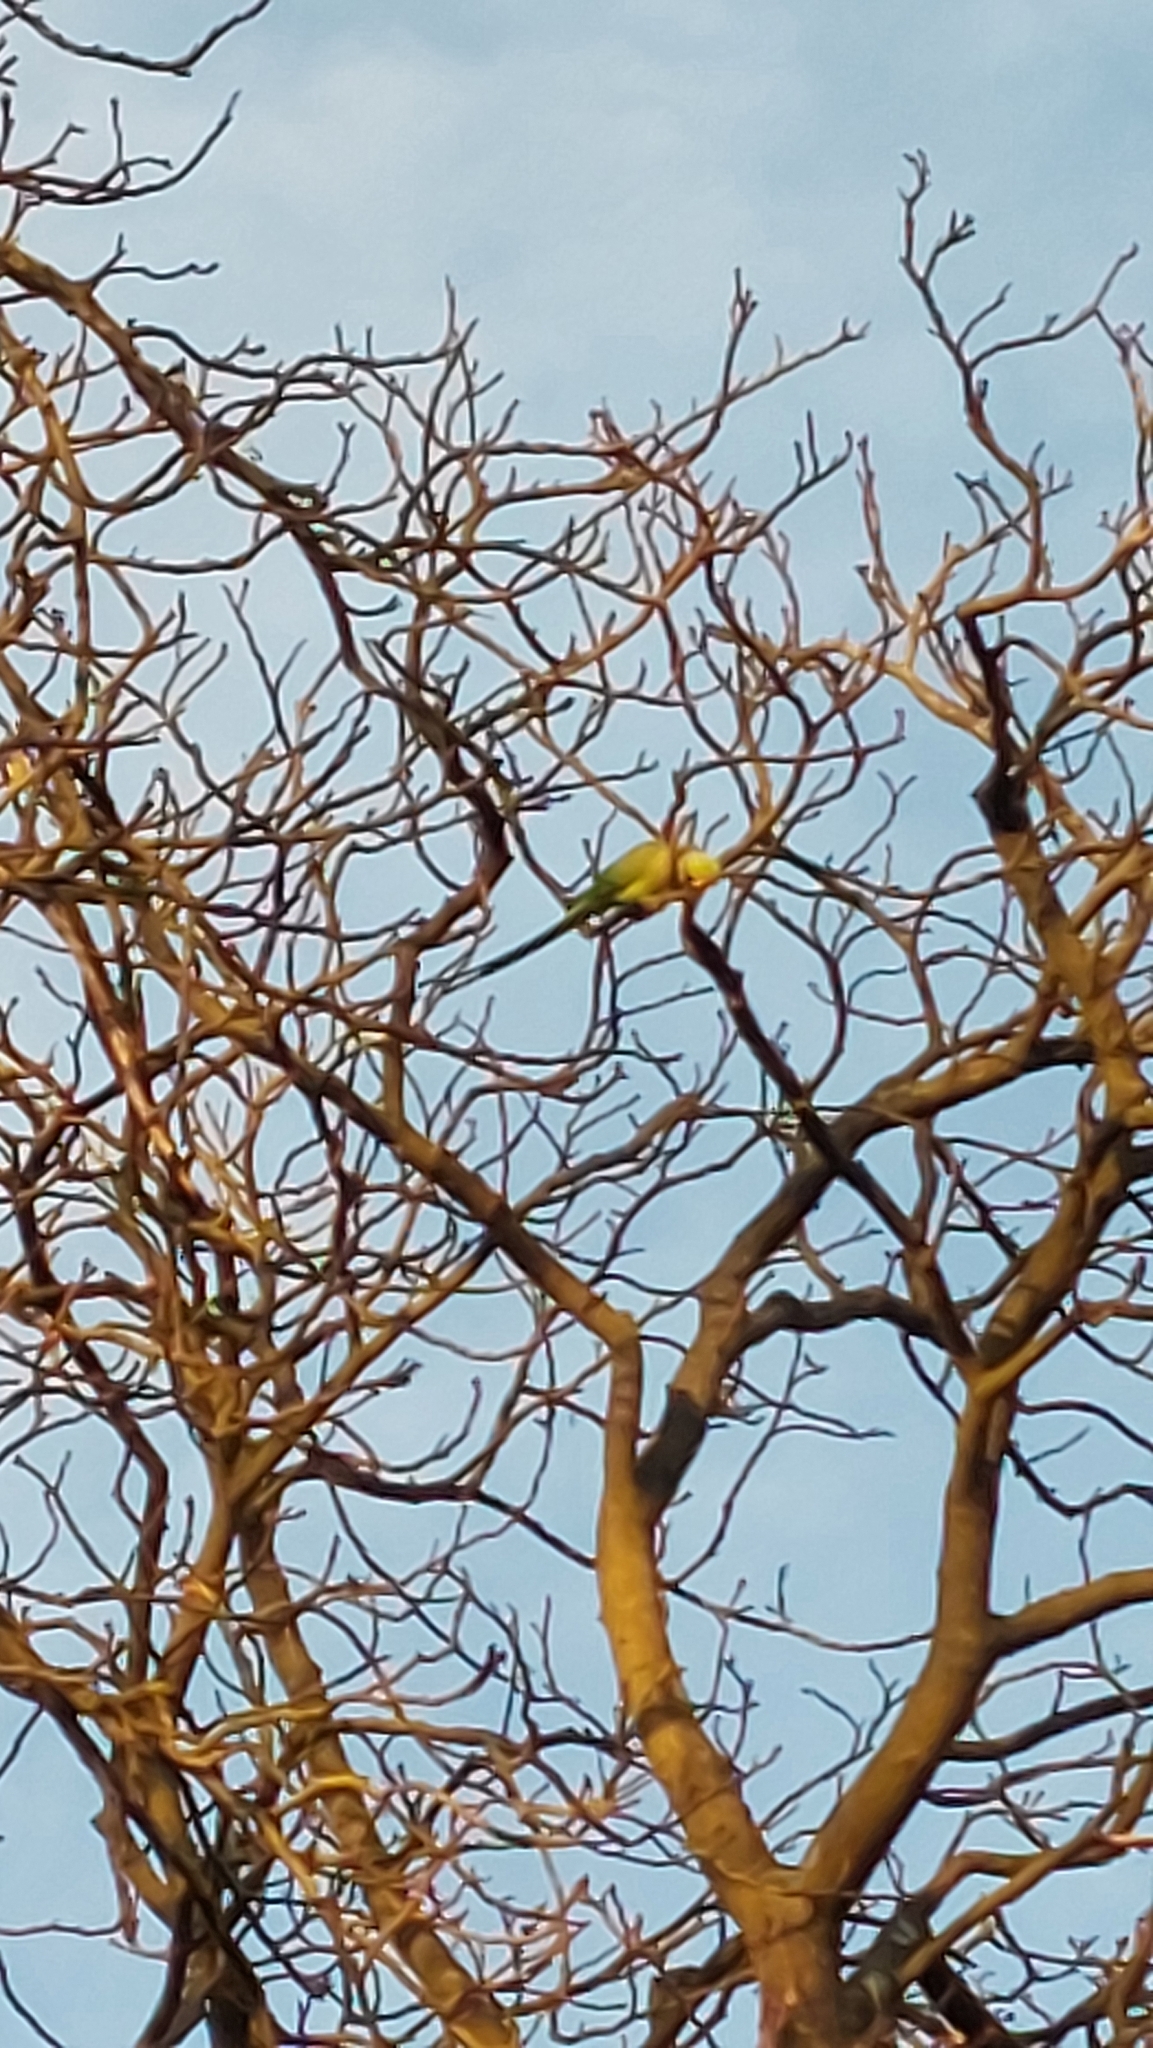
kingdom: Animalia
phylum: Chordata
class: Aves
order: Psittaciformes
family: Psittacidae
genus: Psittacula
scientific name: Psittacula krameri
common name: Rose-ringed parakeet
